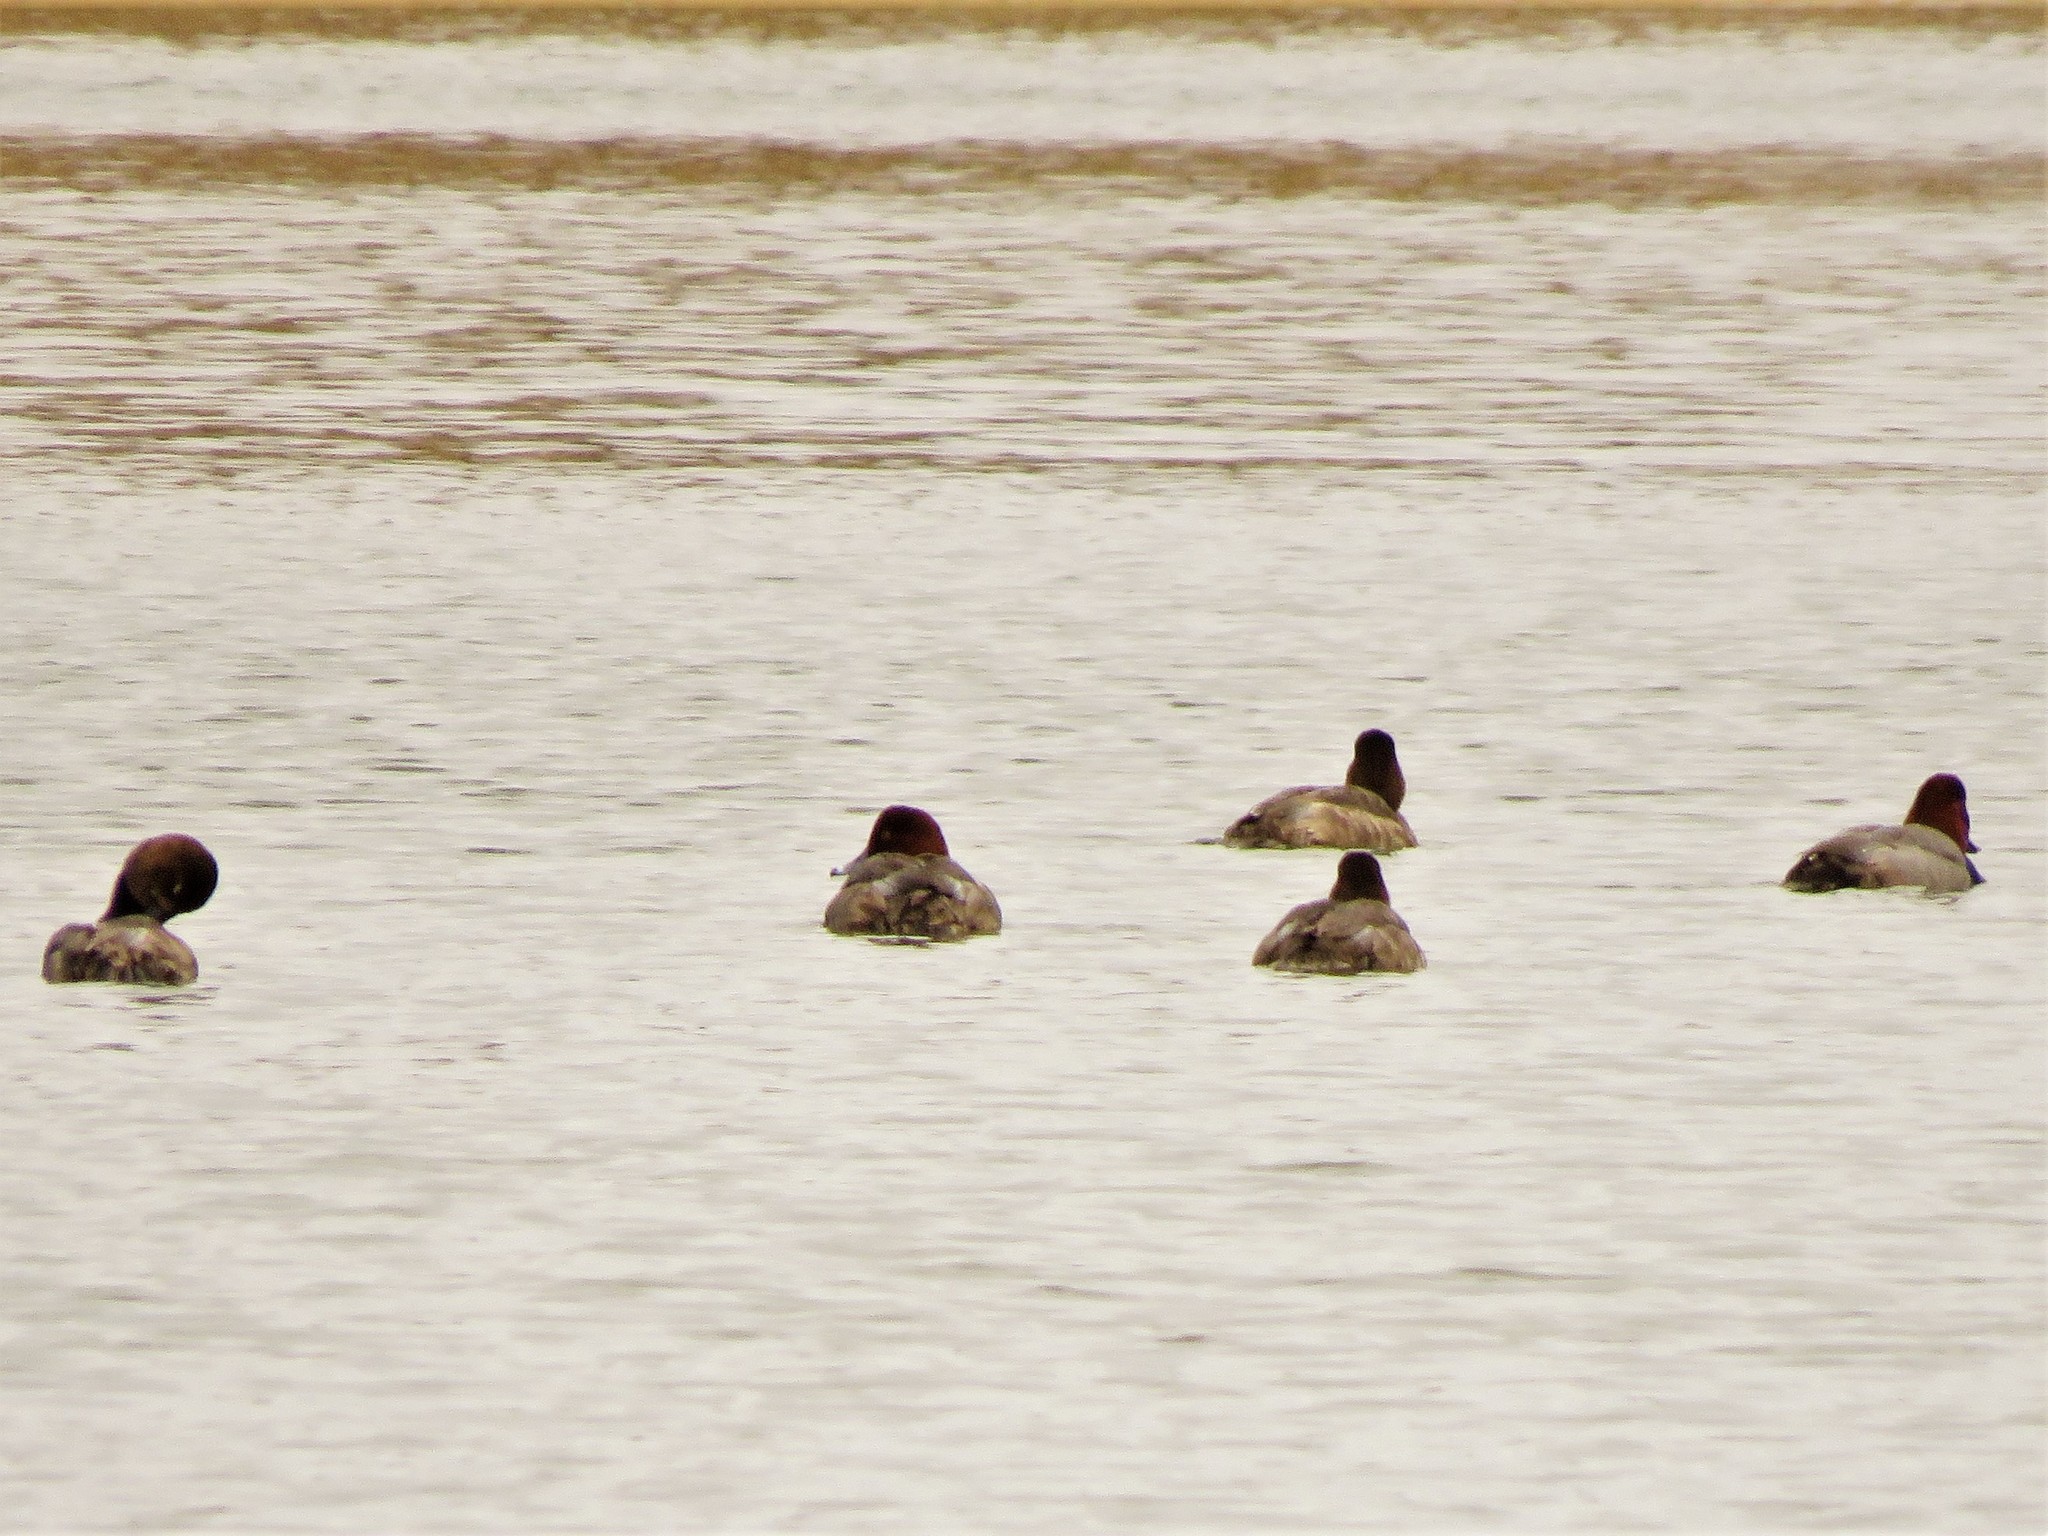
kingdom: Animalia
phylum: Chordata
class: Aves
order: Anseriformes
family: Anatidae
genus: Aythya
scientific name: Aythya americana
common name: Redhead
